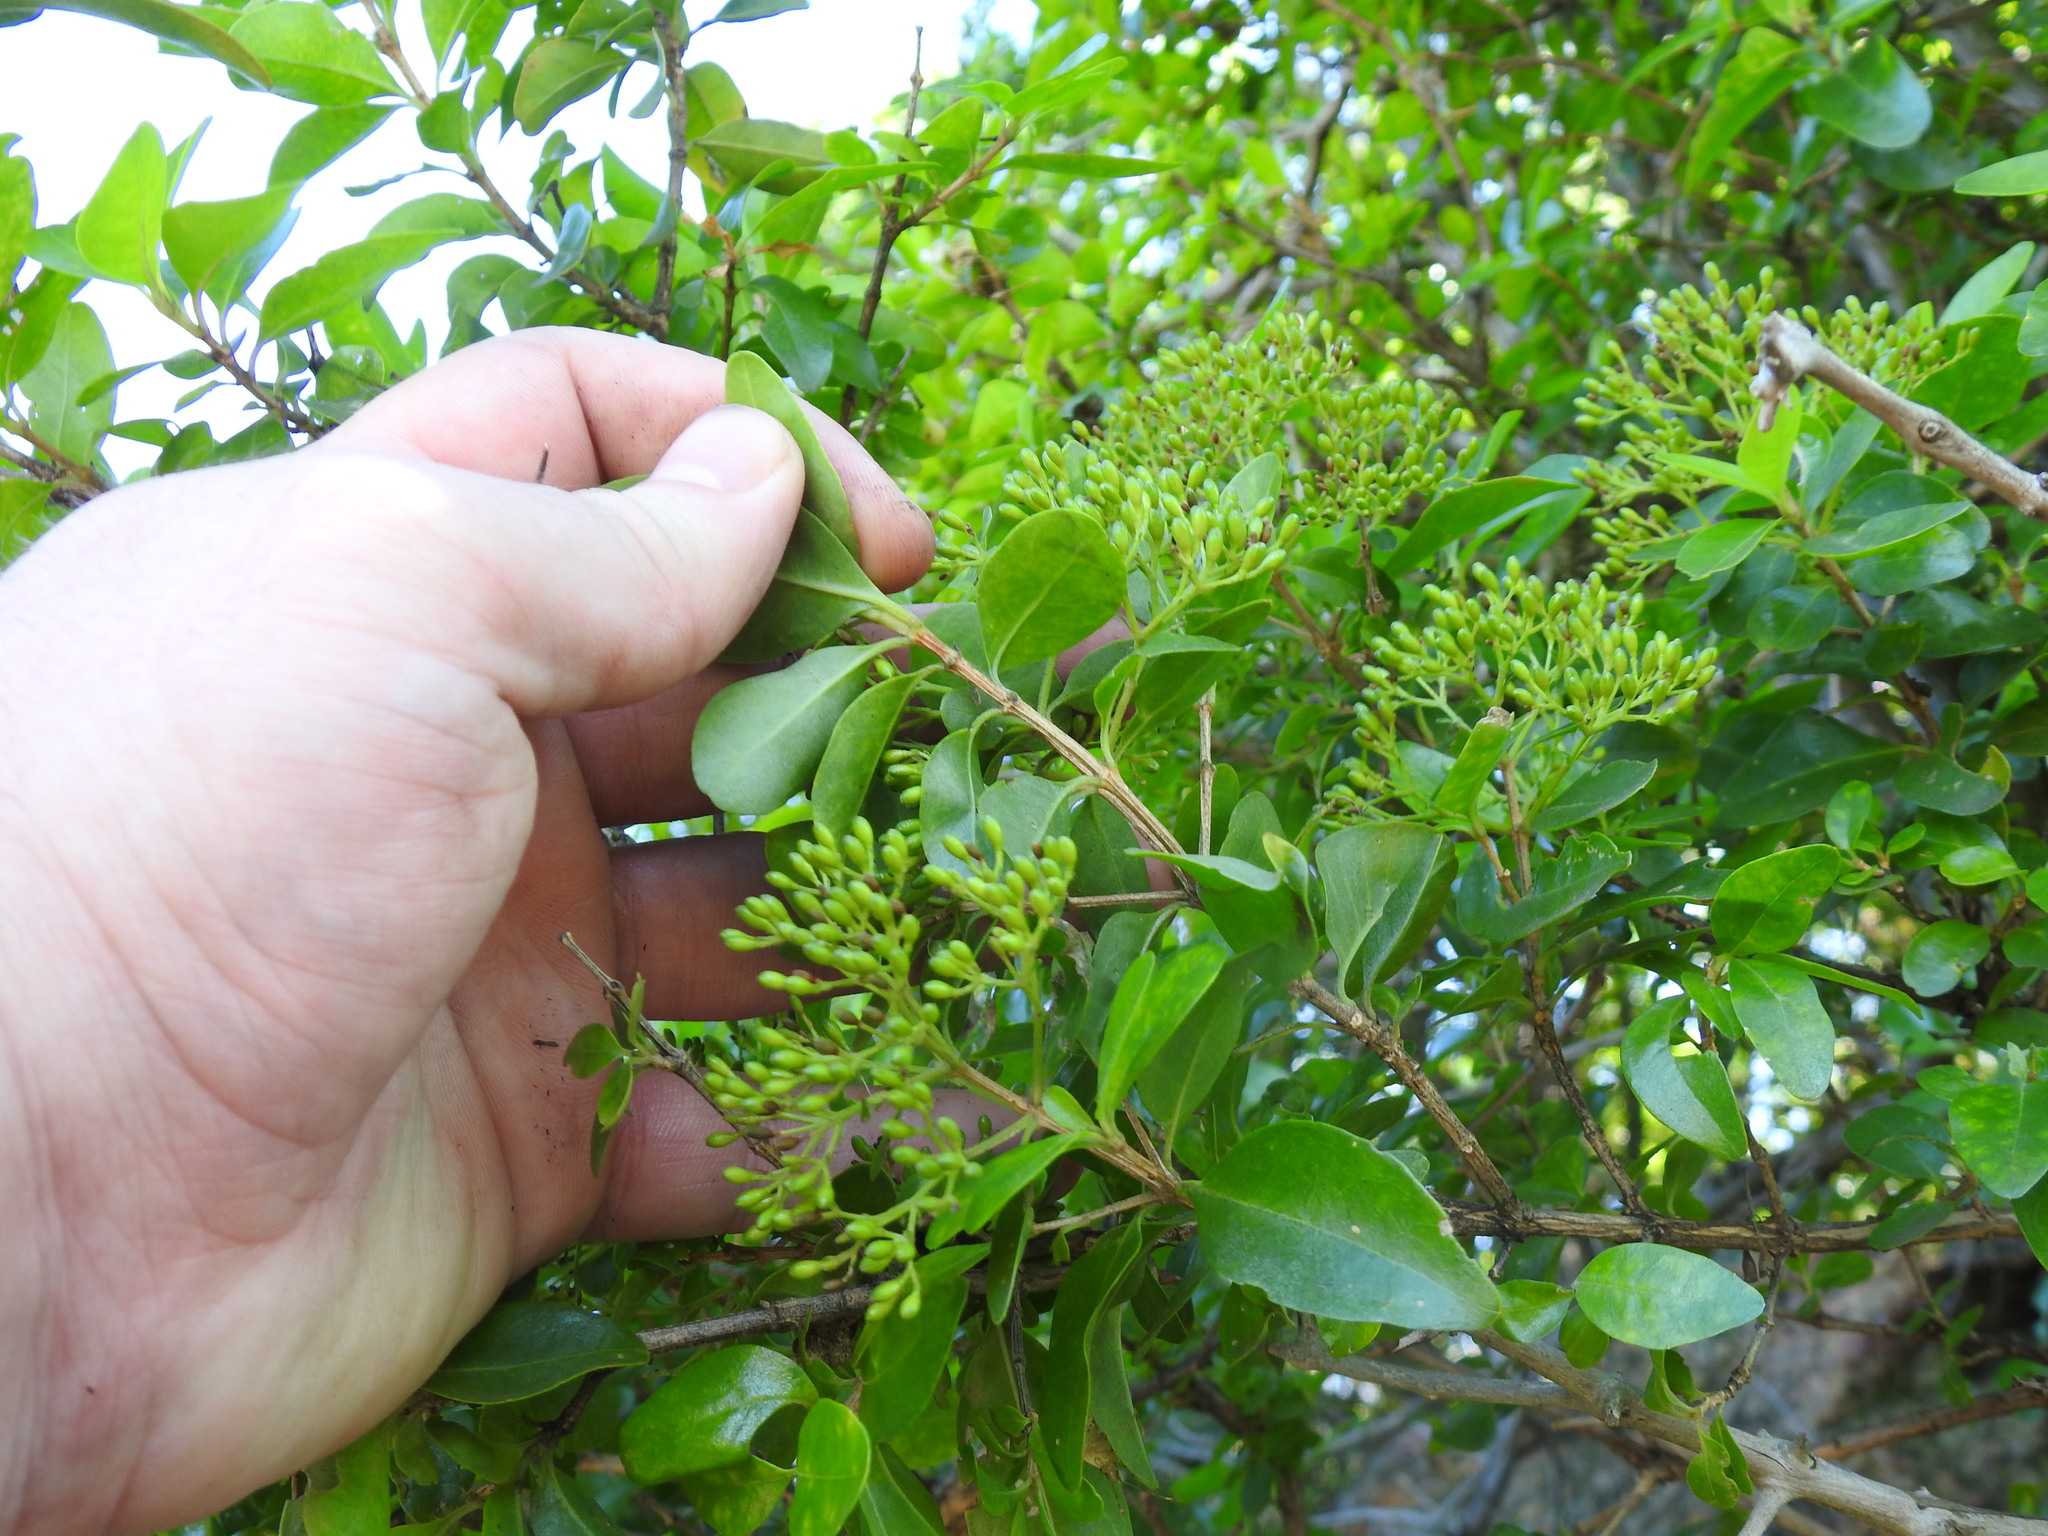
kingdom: Plantae
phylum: Tracheophyta
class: Magnoliopsida
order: Lamiales
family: Stilbaceae
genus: Nuxia
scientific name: Nuxia congesta
